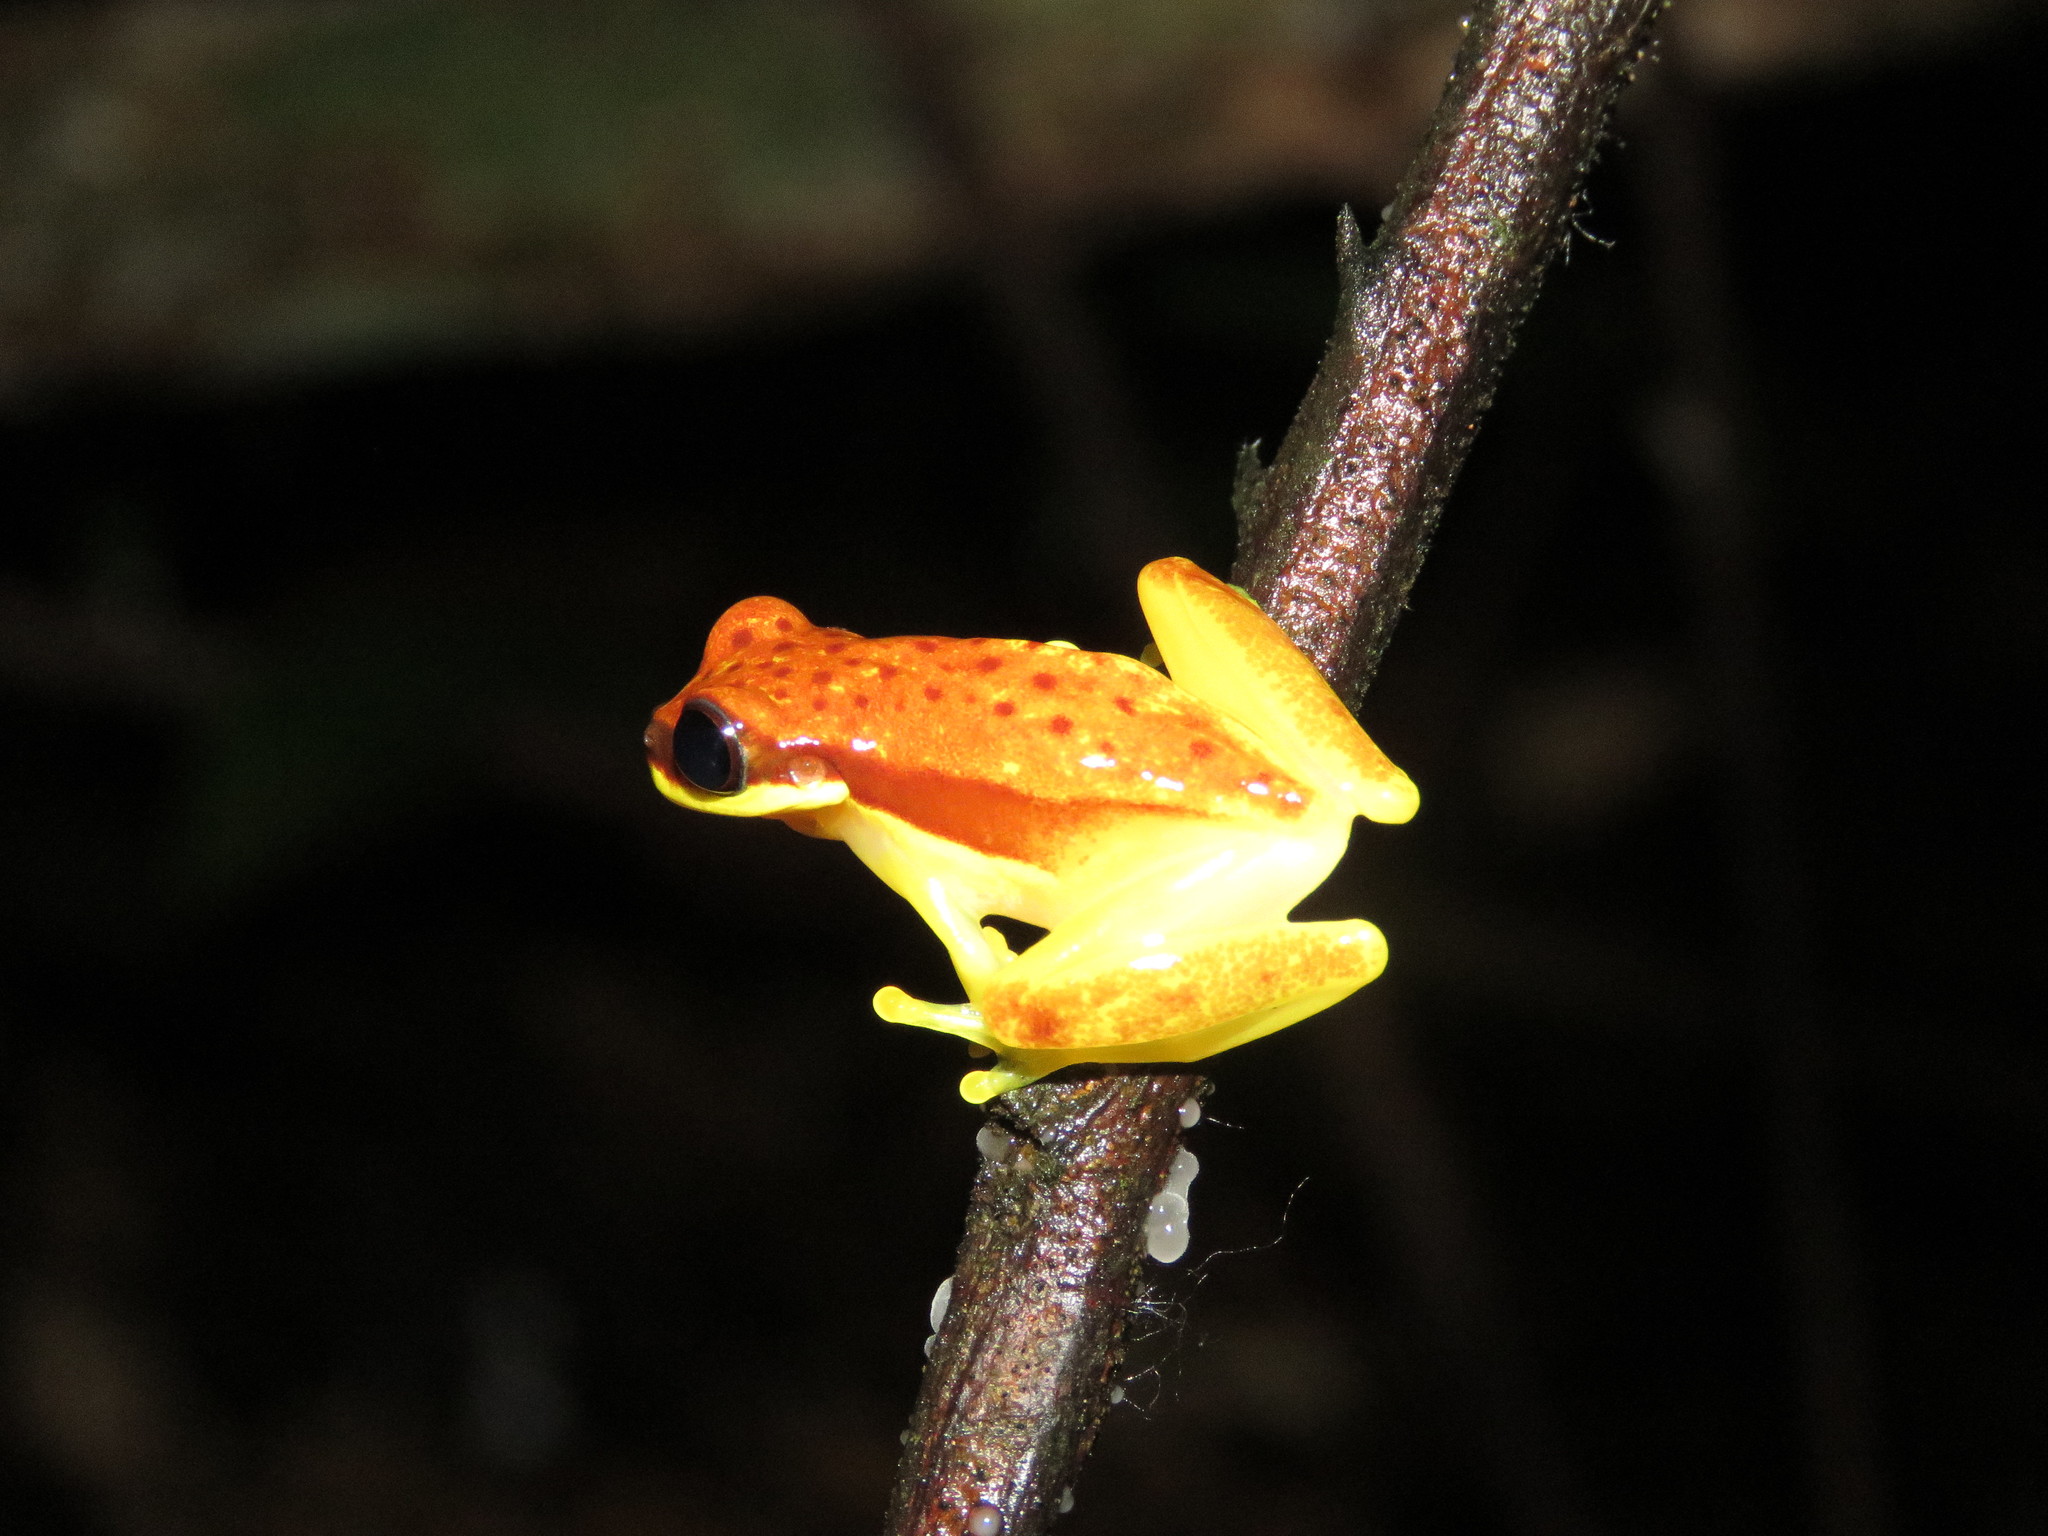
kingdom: Animalia
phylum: Chordata
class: Amphibia
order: Anura
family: Hylidae
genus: Dendropsophus
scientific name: Dendropsophus rhodopeplus
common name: Red-skirted treefrog
